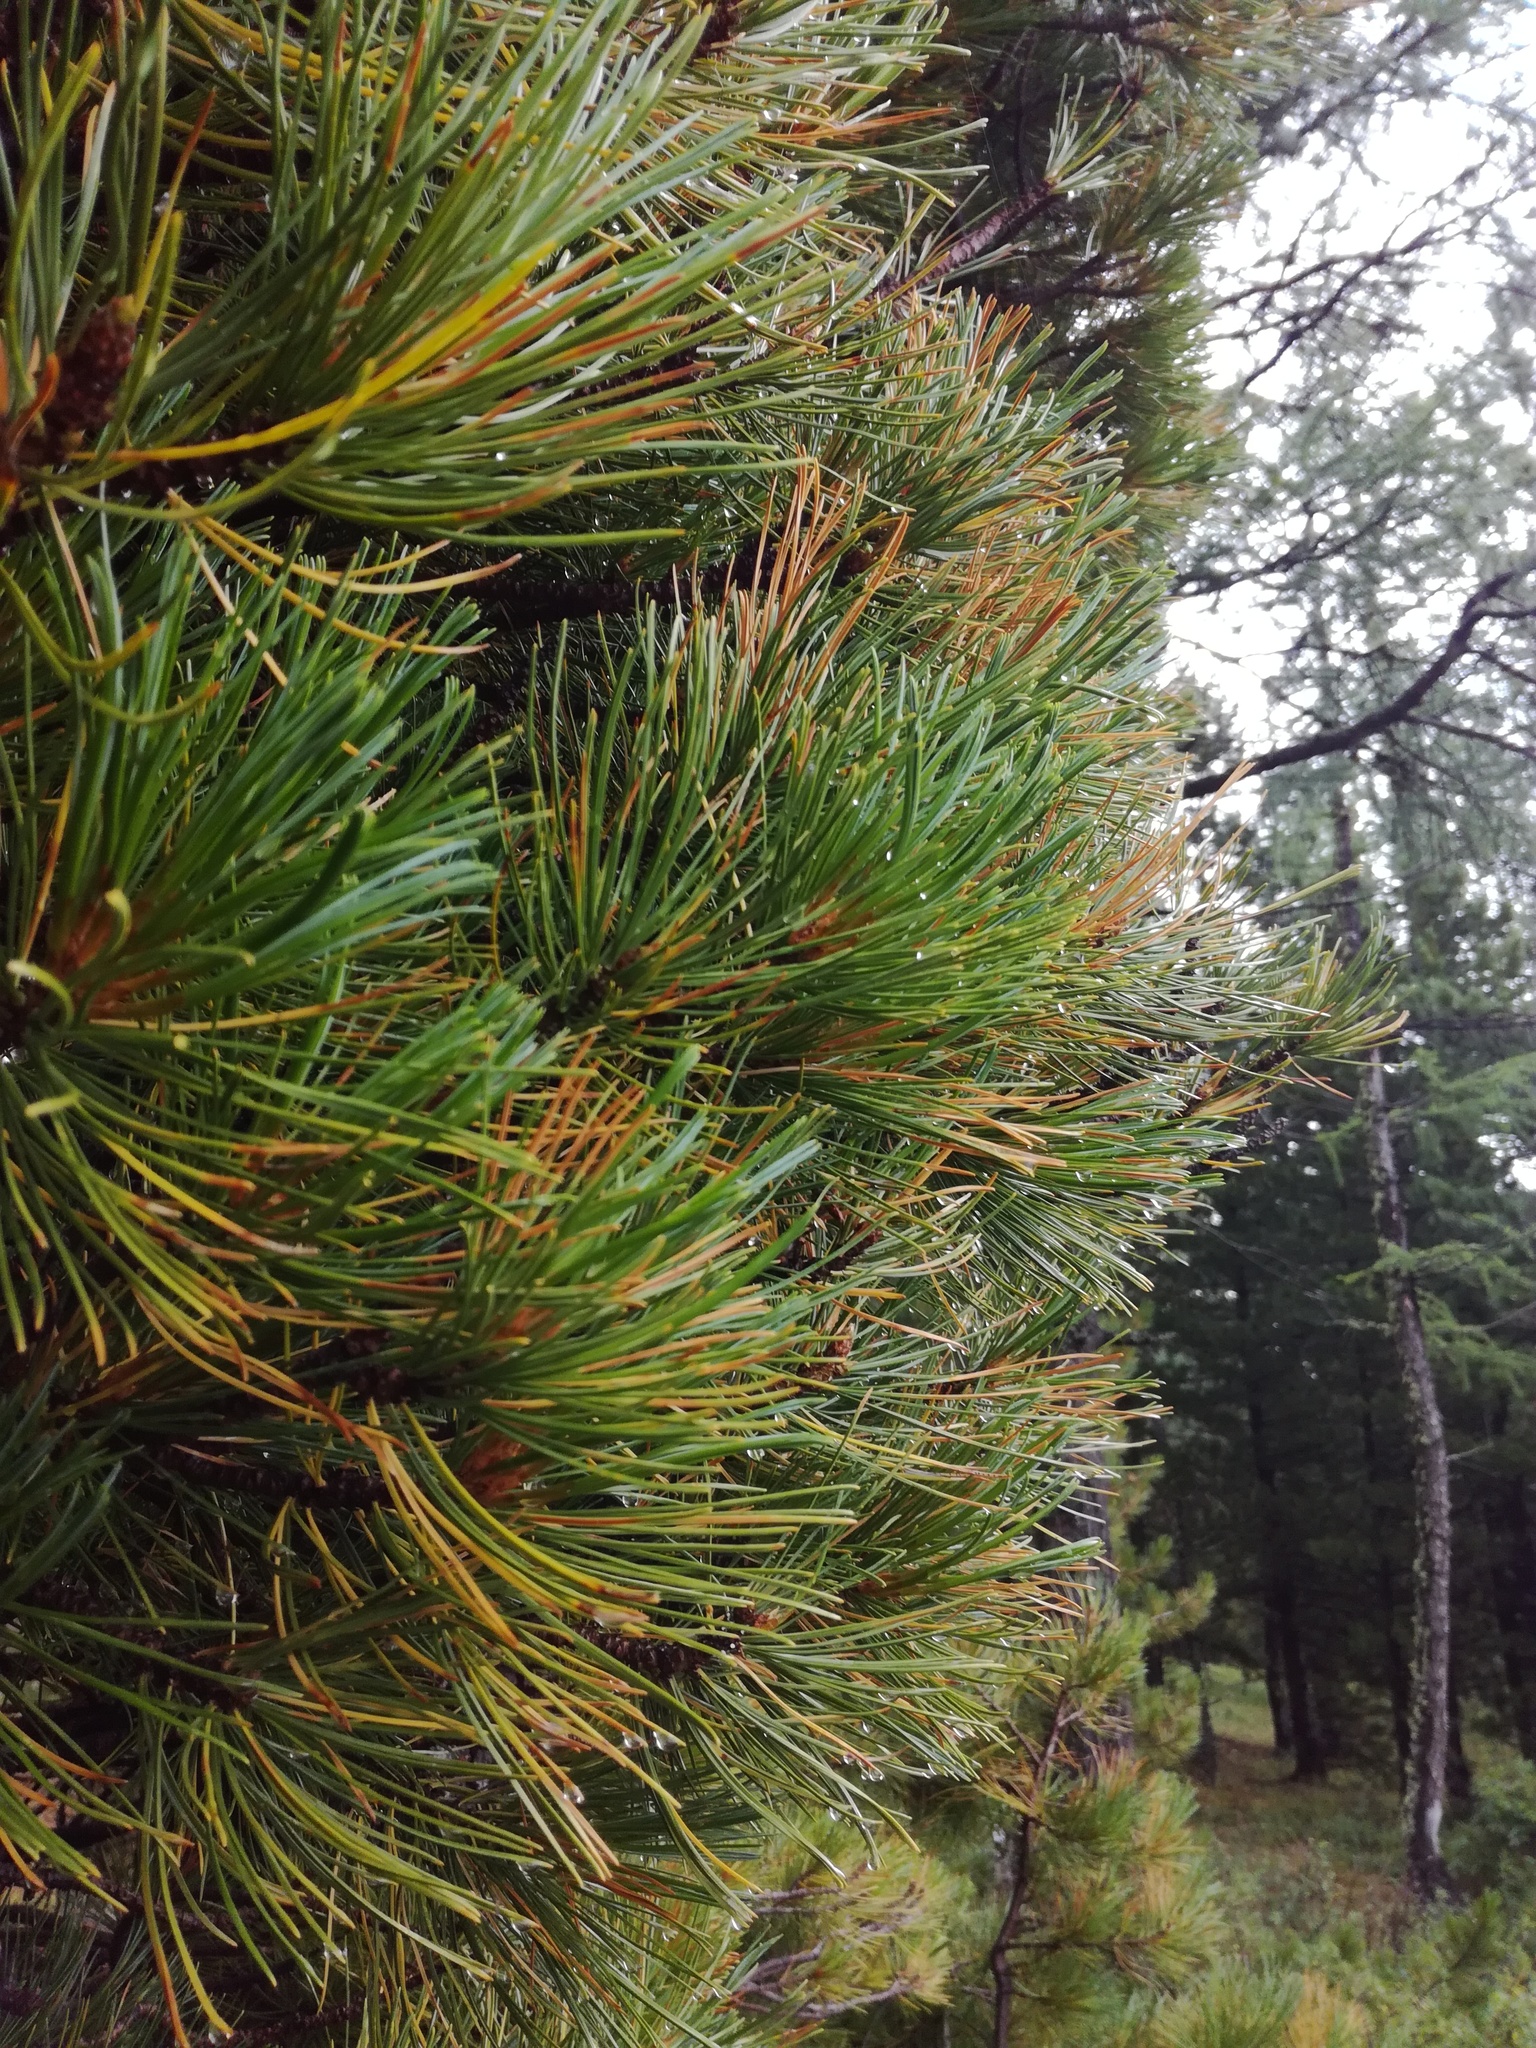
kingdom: Plantae
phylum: Tracheophyta
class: Pinopsida
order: Pinales
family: Pinaceae
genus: Pinus
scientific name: Pinus sibirica
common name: Siberian pine
